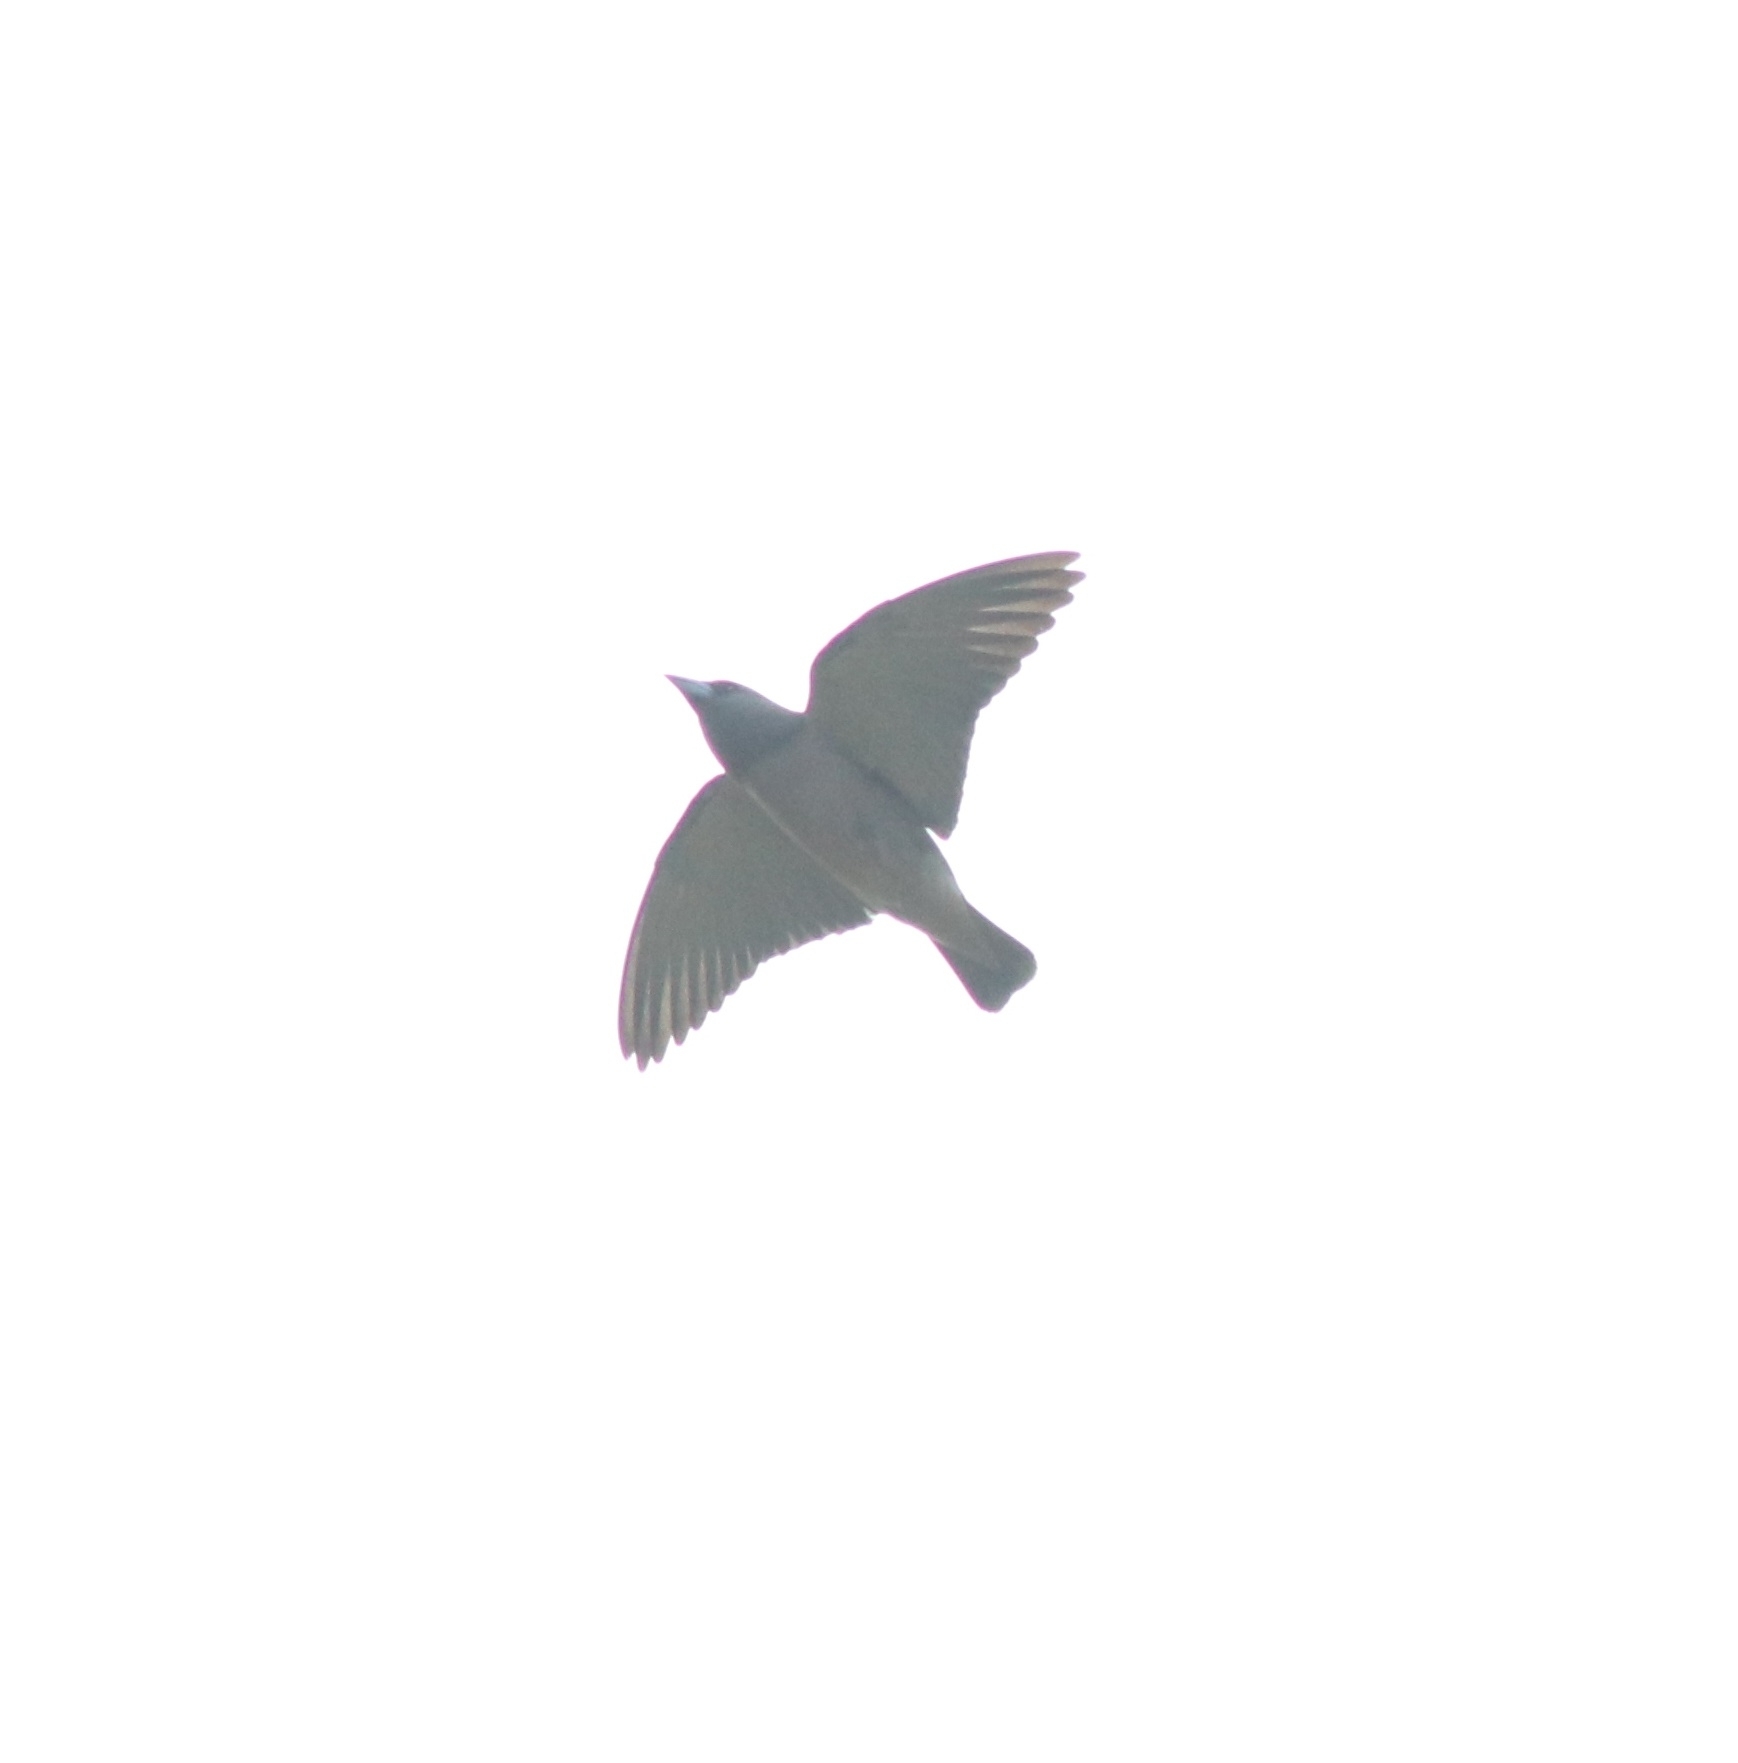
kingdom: Animalia
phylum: Chordata
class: Aves
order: Passeriformes
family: Artamidae
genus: Artamus
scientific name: Artamus fuscus
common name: Ashy woodswallow
